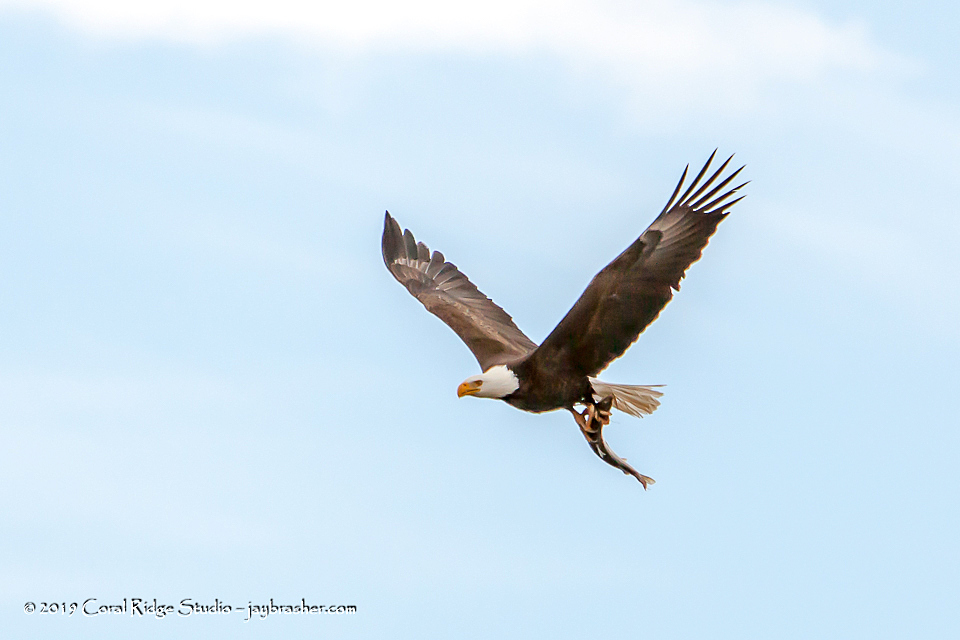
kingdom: Animalia
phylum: Chordata
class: Aves
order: Accipitriformes
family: Accipitridae
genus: Haliaeetus
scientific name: Haliaeetus leucocephalus
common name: Bald eagle
